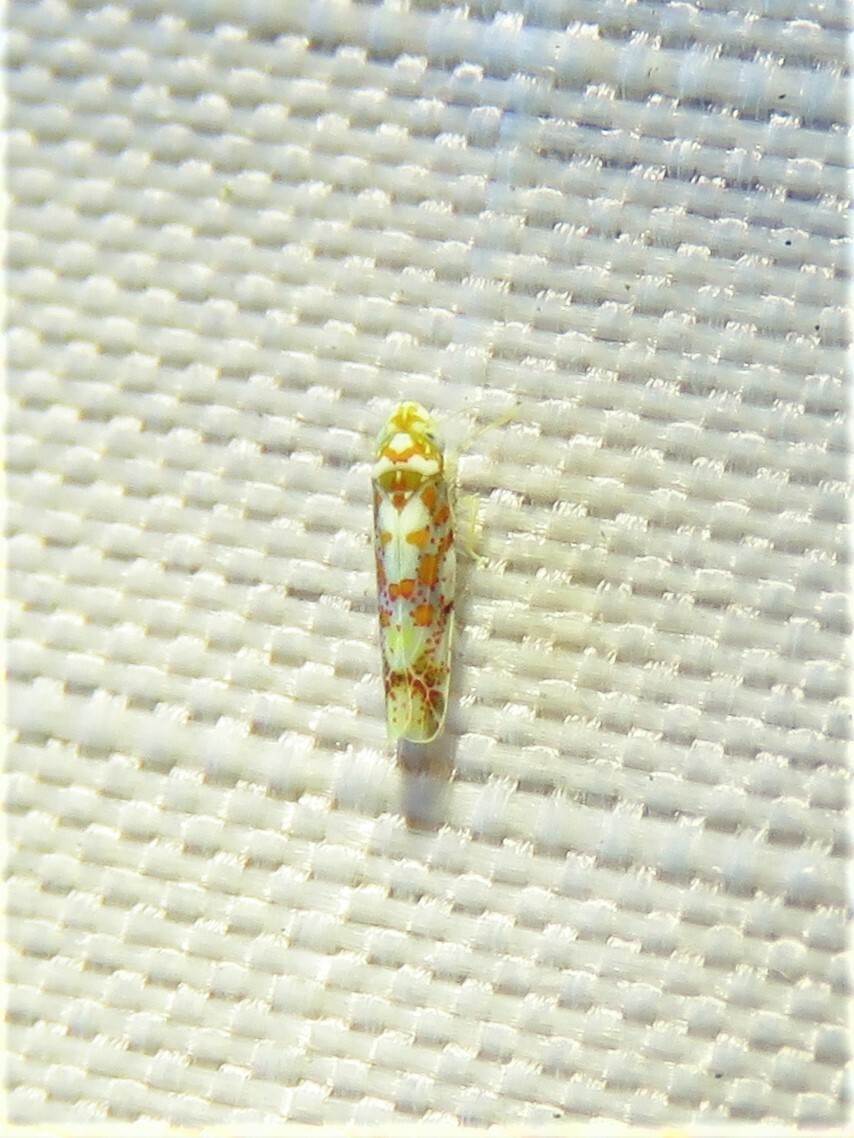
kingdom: Animalia
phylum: Arthropoda
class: Insecta
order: Hemiptera
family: Cicadellidae
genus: Dikrella
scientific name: Dikrella maculata
